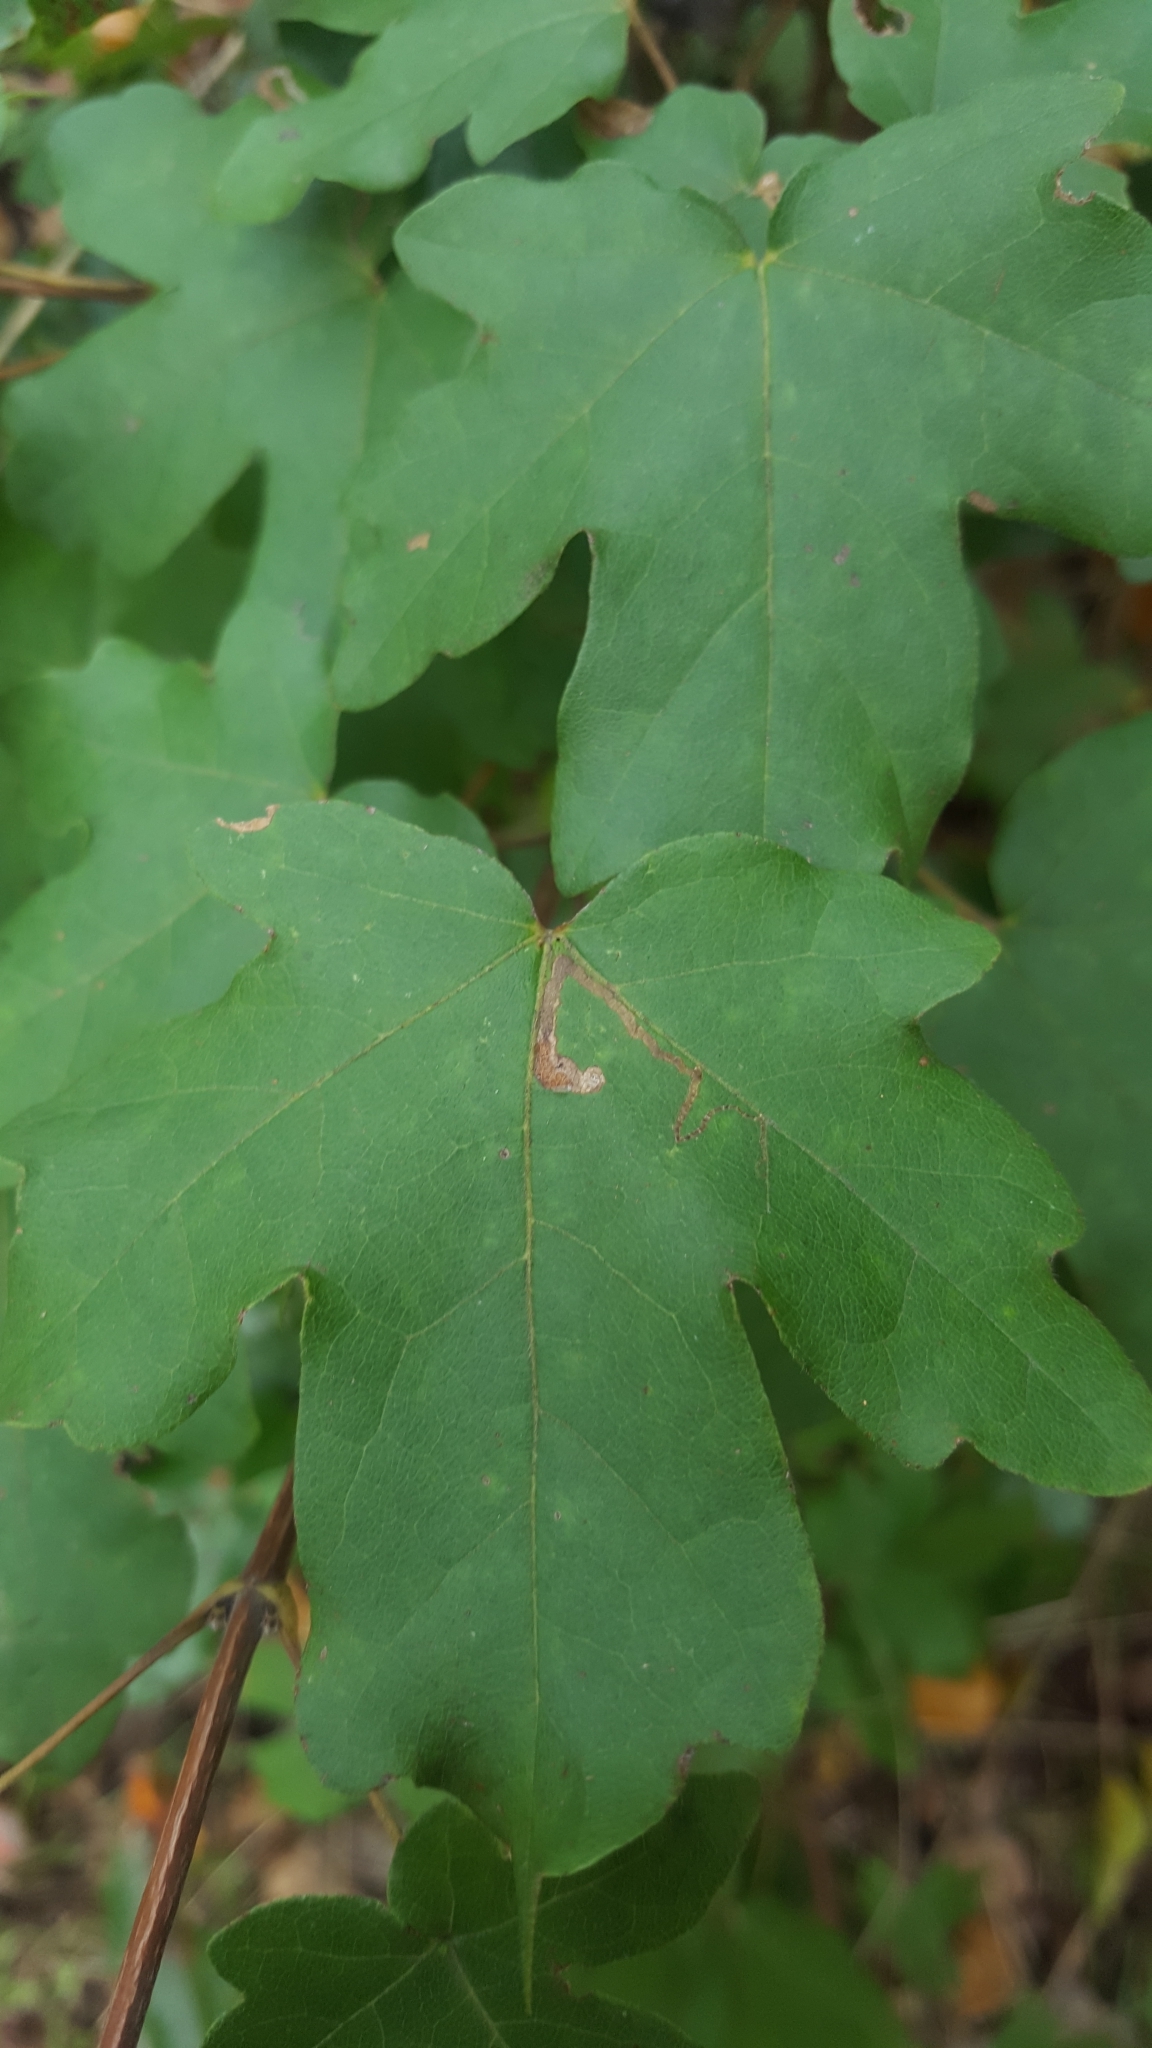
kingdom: Plantae
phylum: Tracheophyta
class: Magnoliopsida
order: Sapindales
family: Sapindaceae
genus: Acer
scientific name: Acer campestre
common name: Field maple
